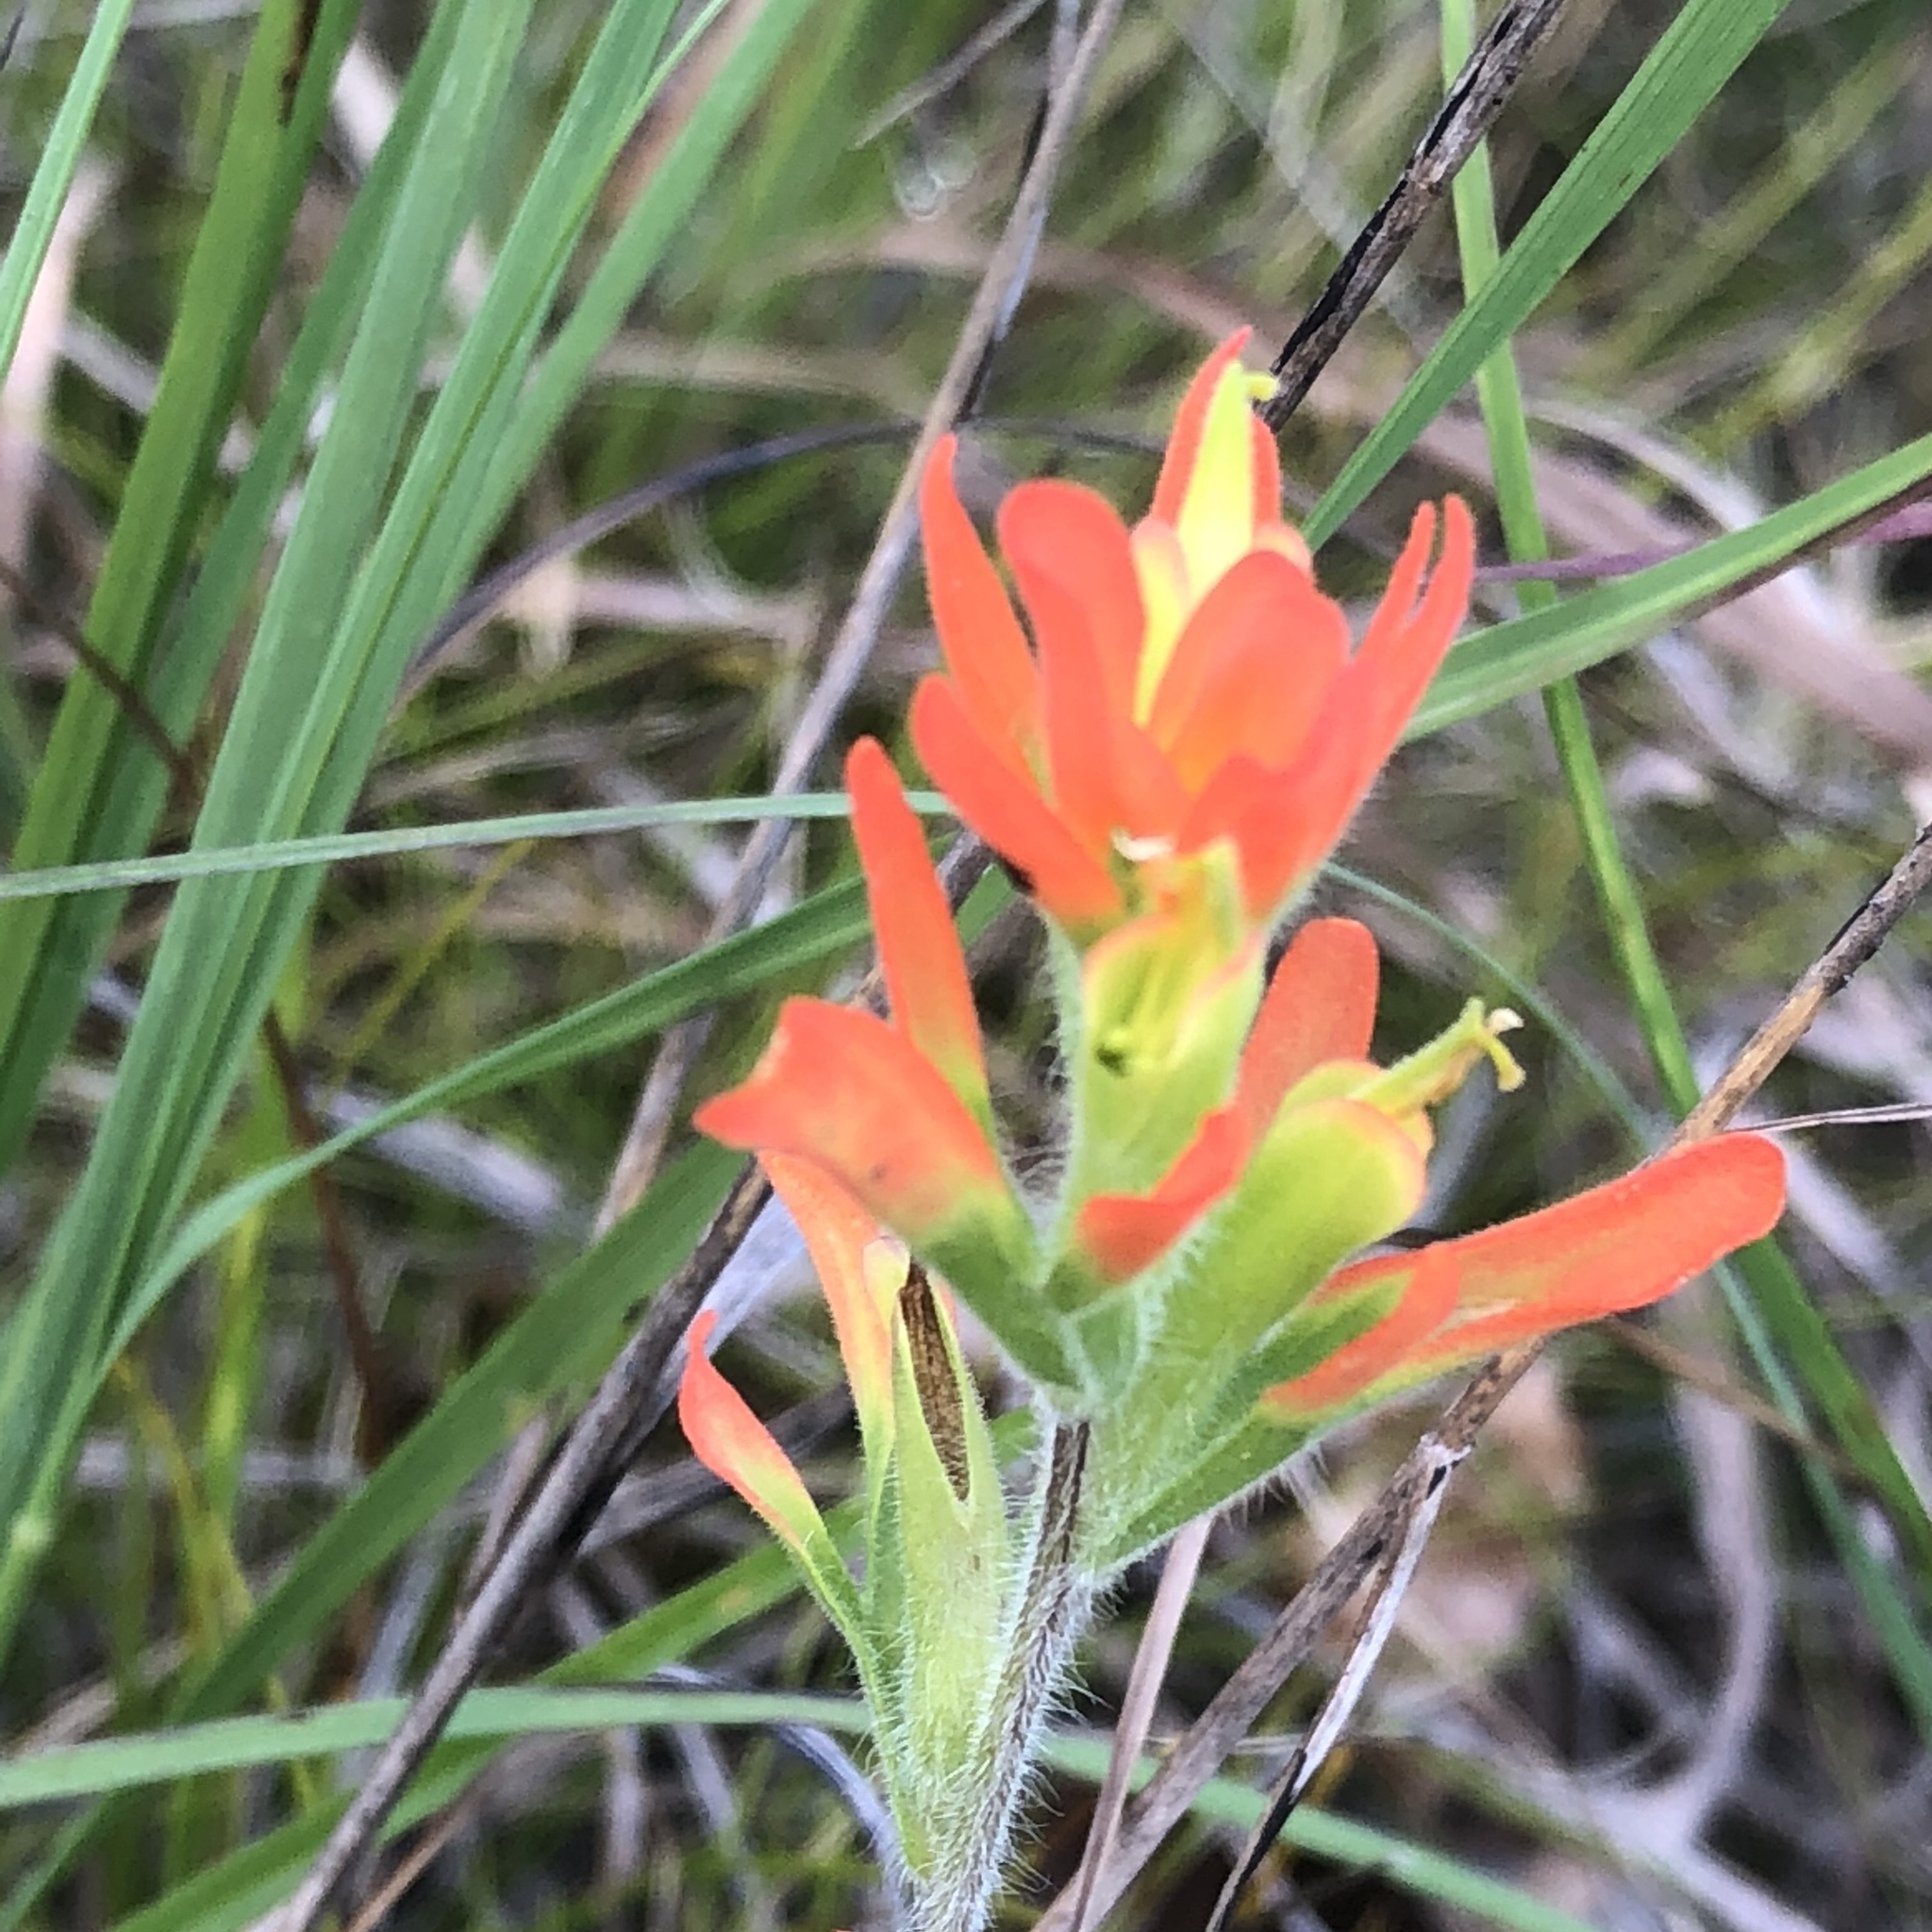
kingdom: Plantae
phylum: Tracheophyta
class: Magnoliopsida
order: Lamiales
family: Orobanchaceae
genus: Castilleja
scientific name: Castilleja coccinea
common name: Scarlet paintbrush
